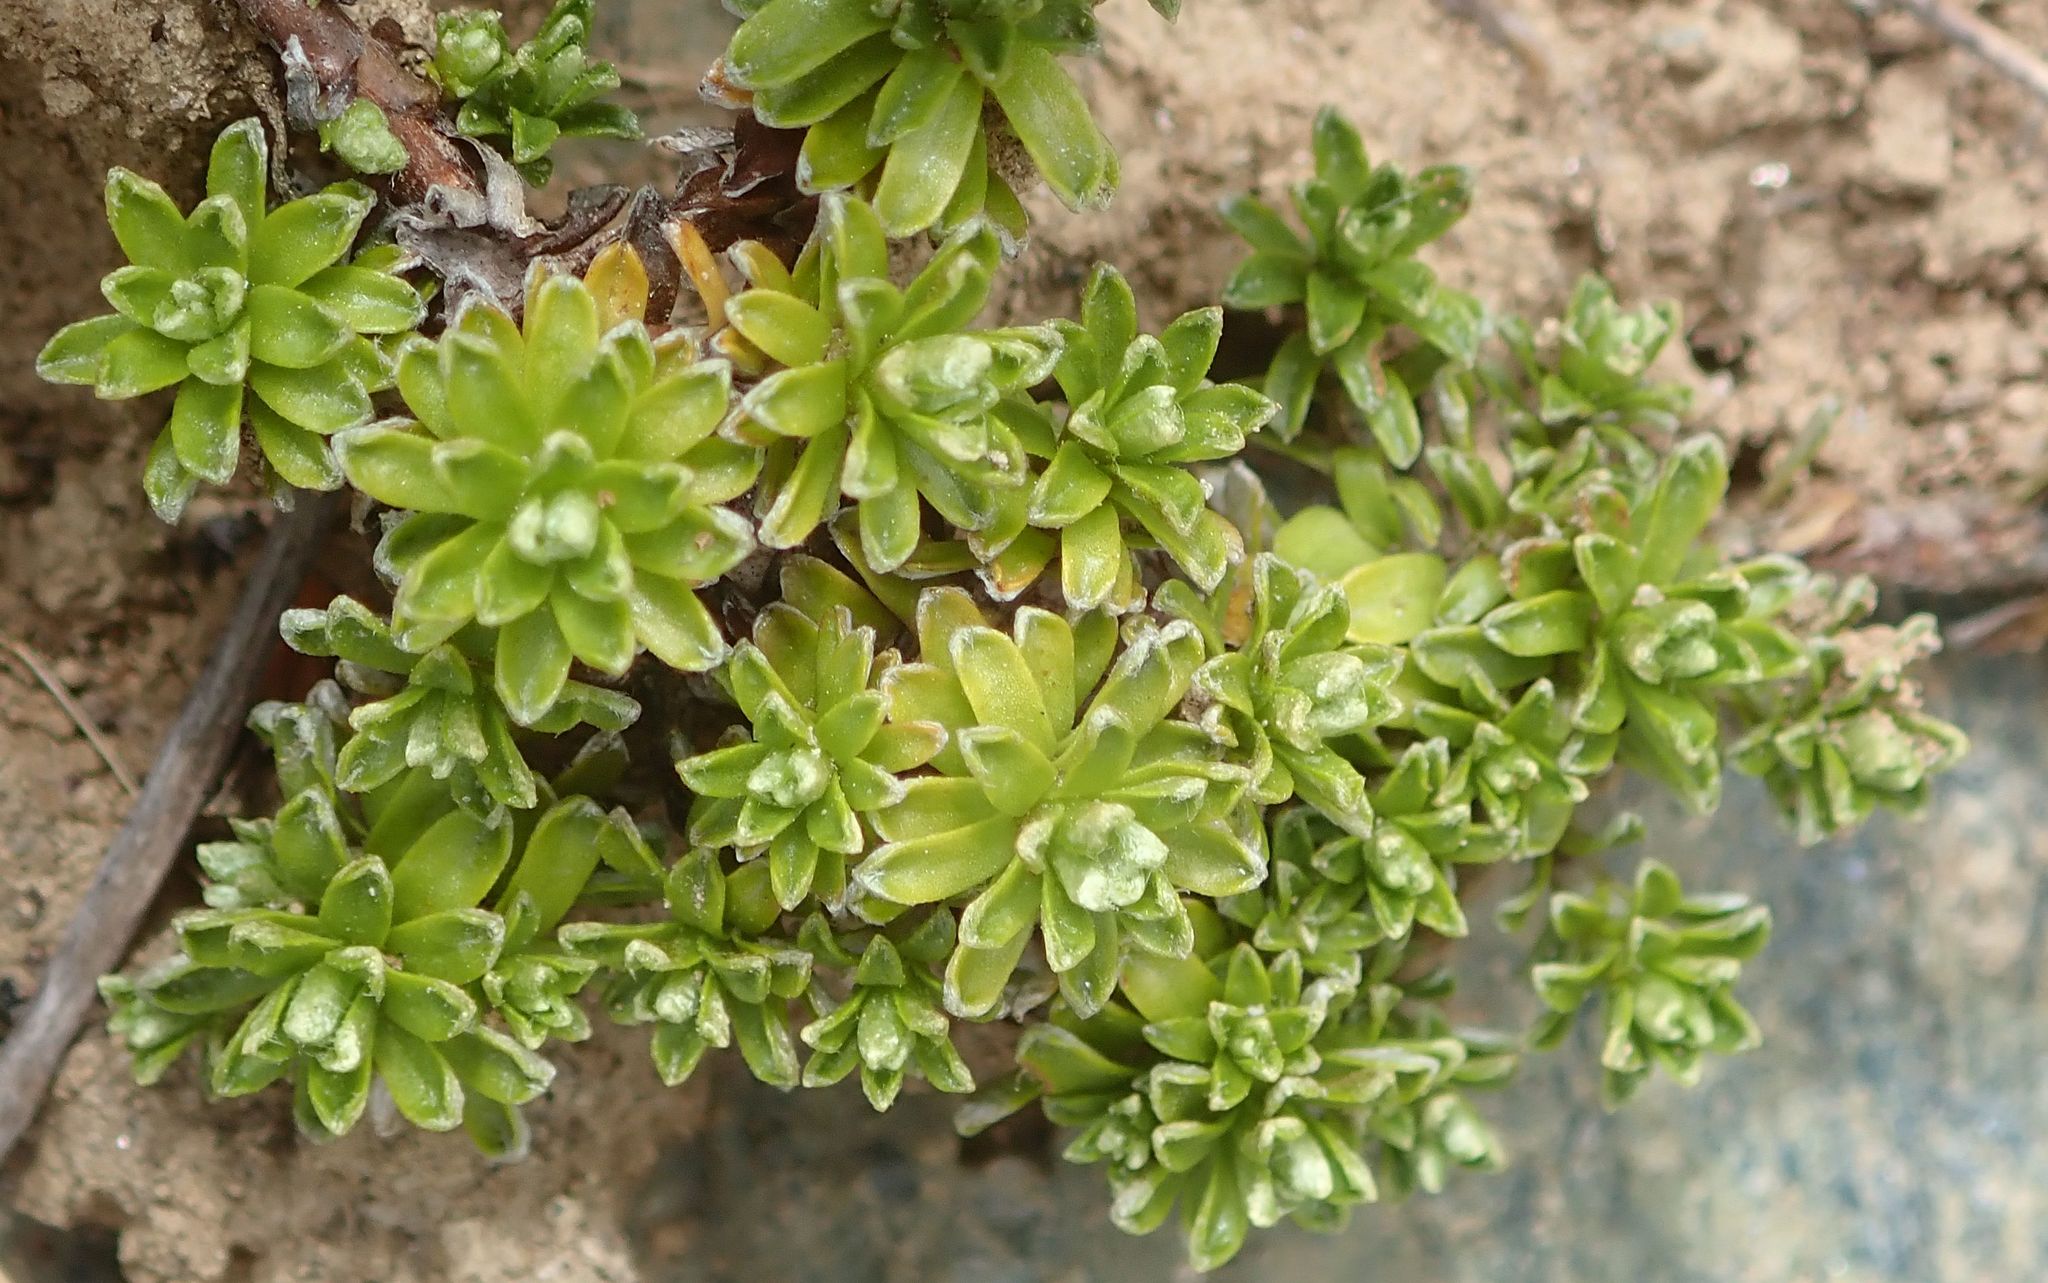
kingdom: Plantae
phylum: Tracheophyta
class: Magnoliopsida
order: Asterales
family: Asteraceae
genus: Raoulia
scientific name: Raoulia subsericea
